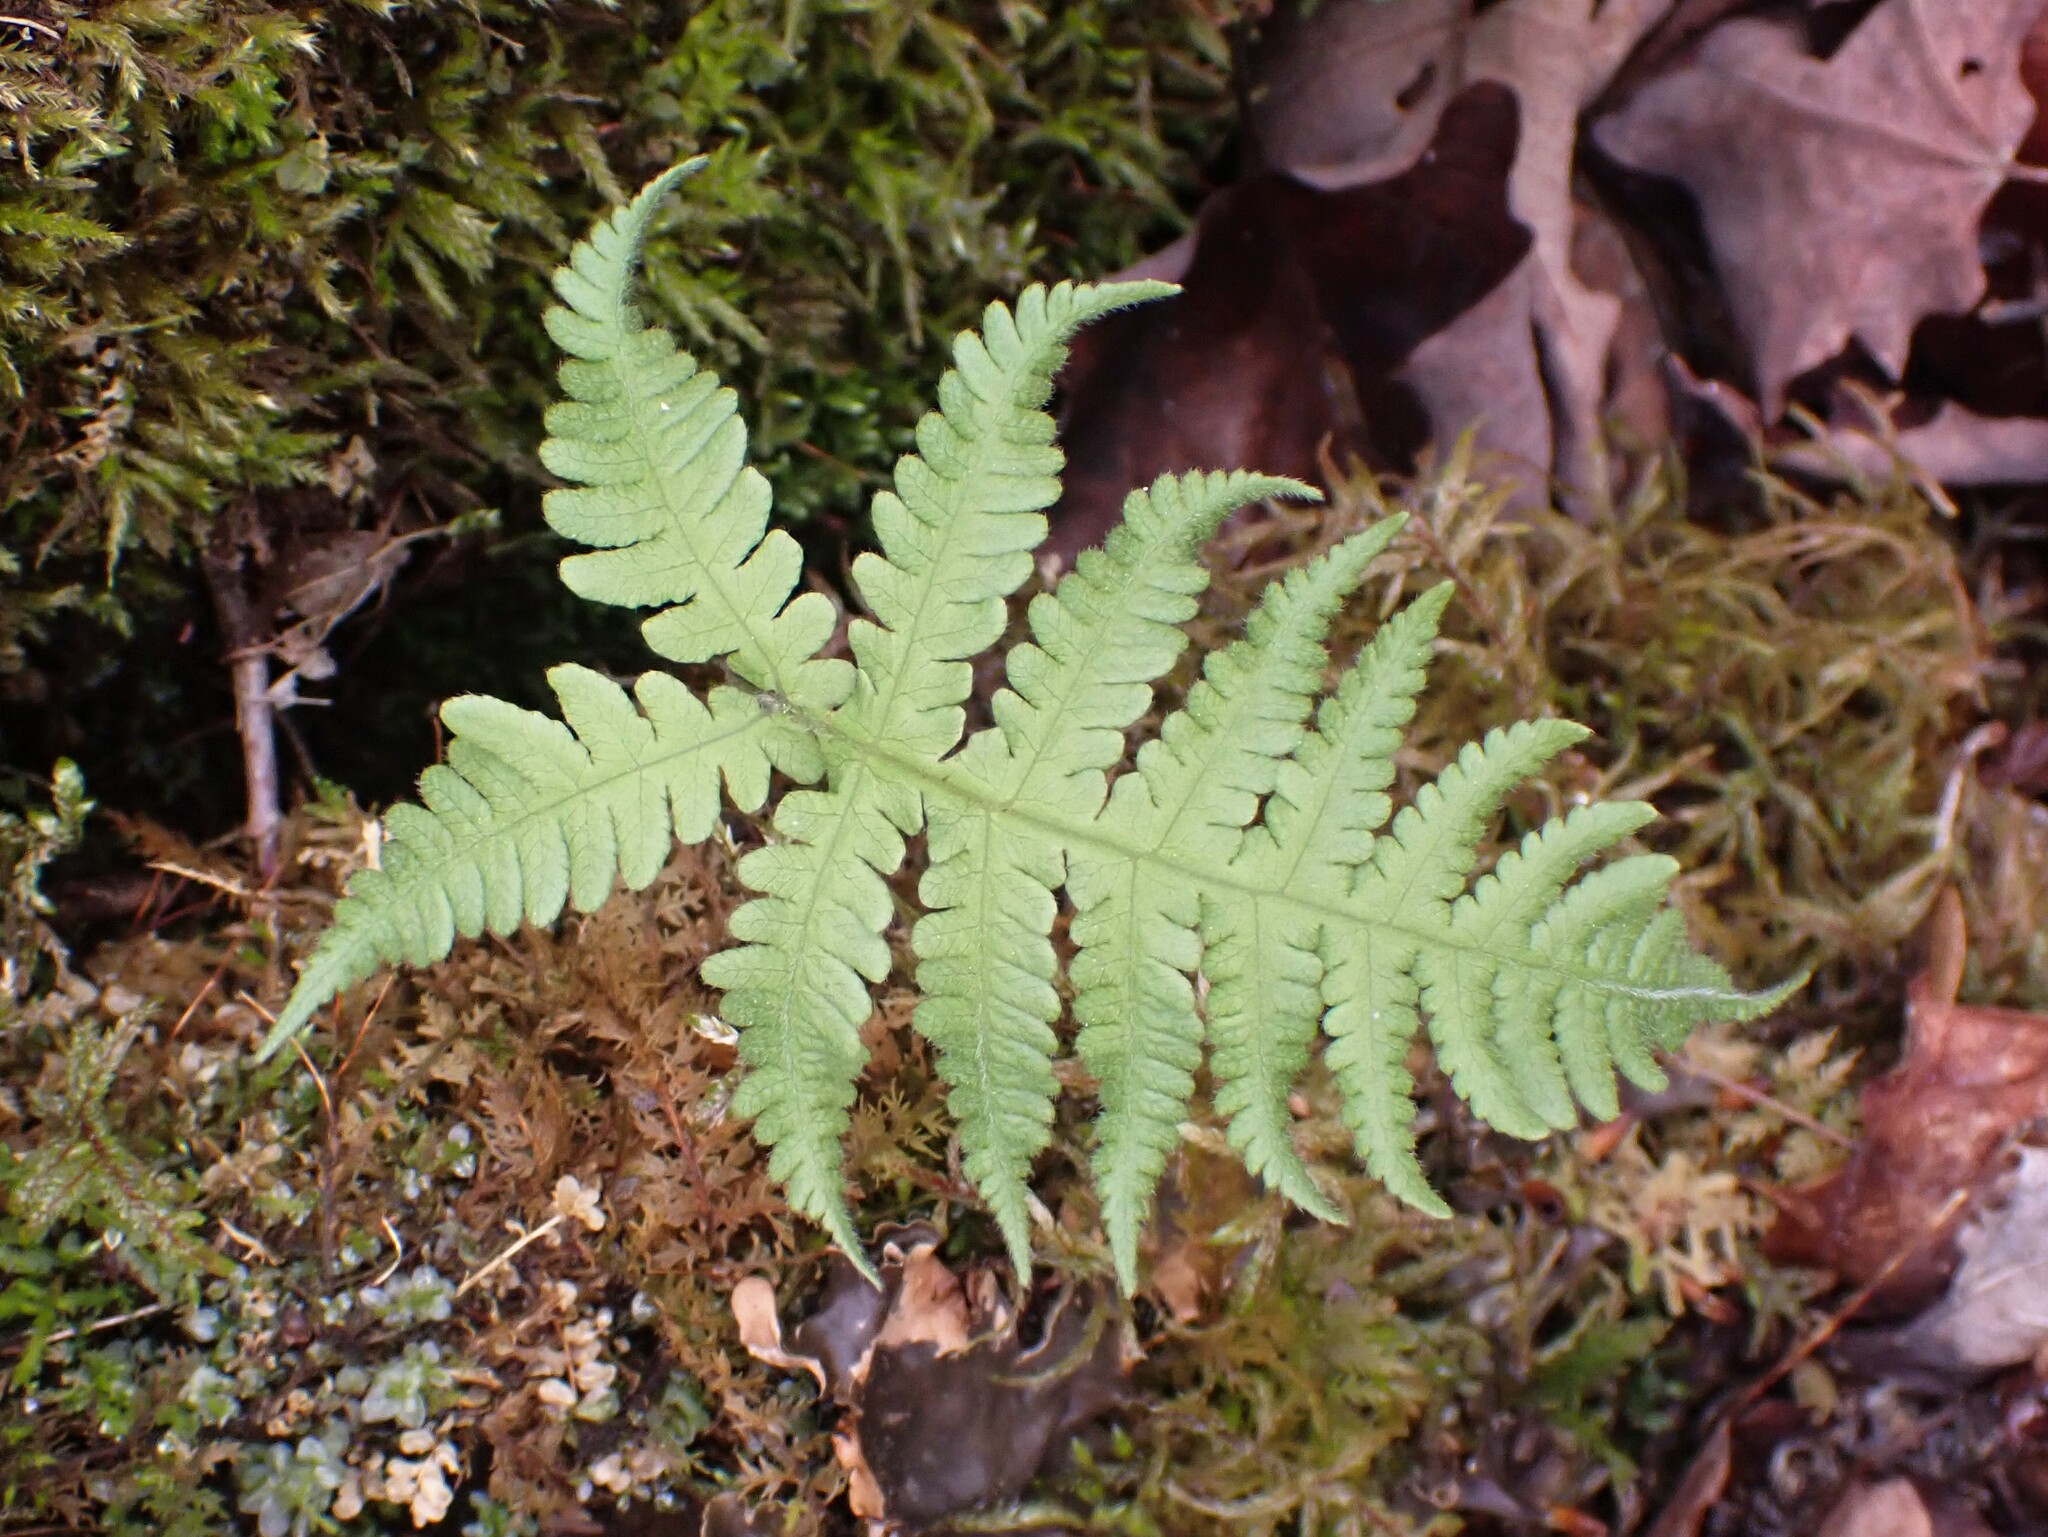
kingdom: Plantae
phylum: Tracheophyta
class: Polypodiopsida
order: Polypodiales
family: Thelypteridaceae
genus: Phegopteris
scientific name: Phegopteris connectilis
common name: Beech fern
